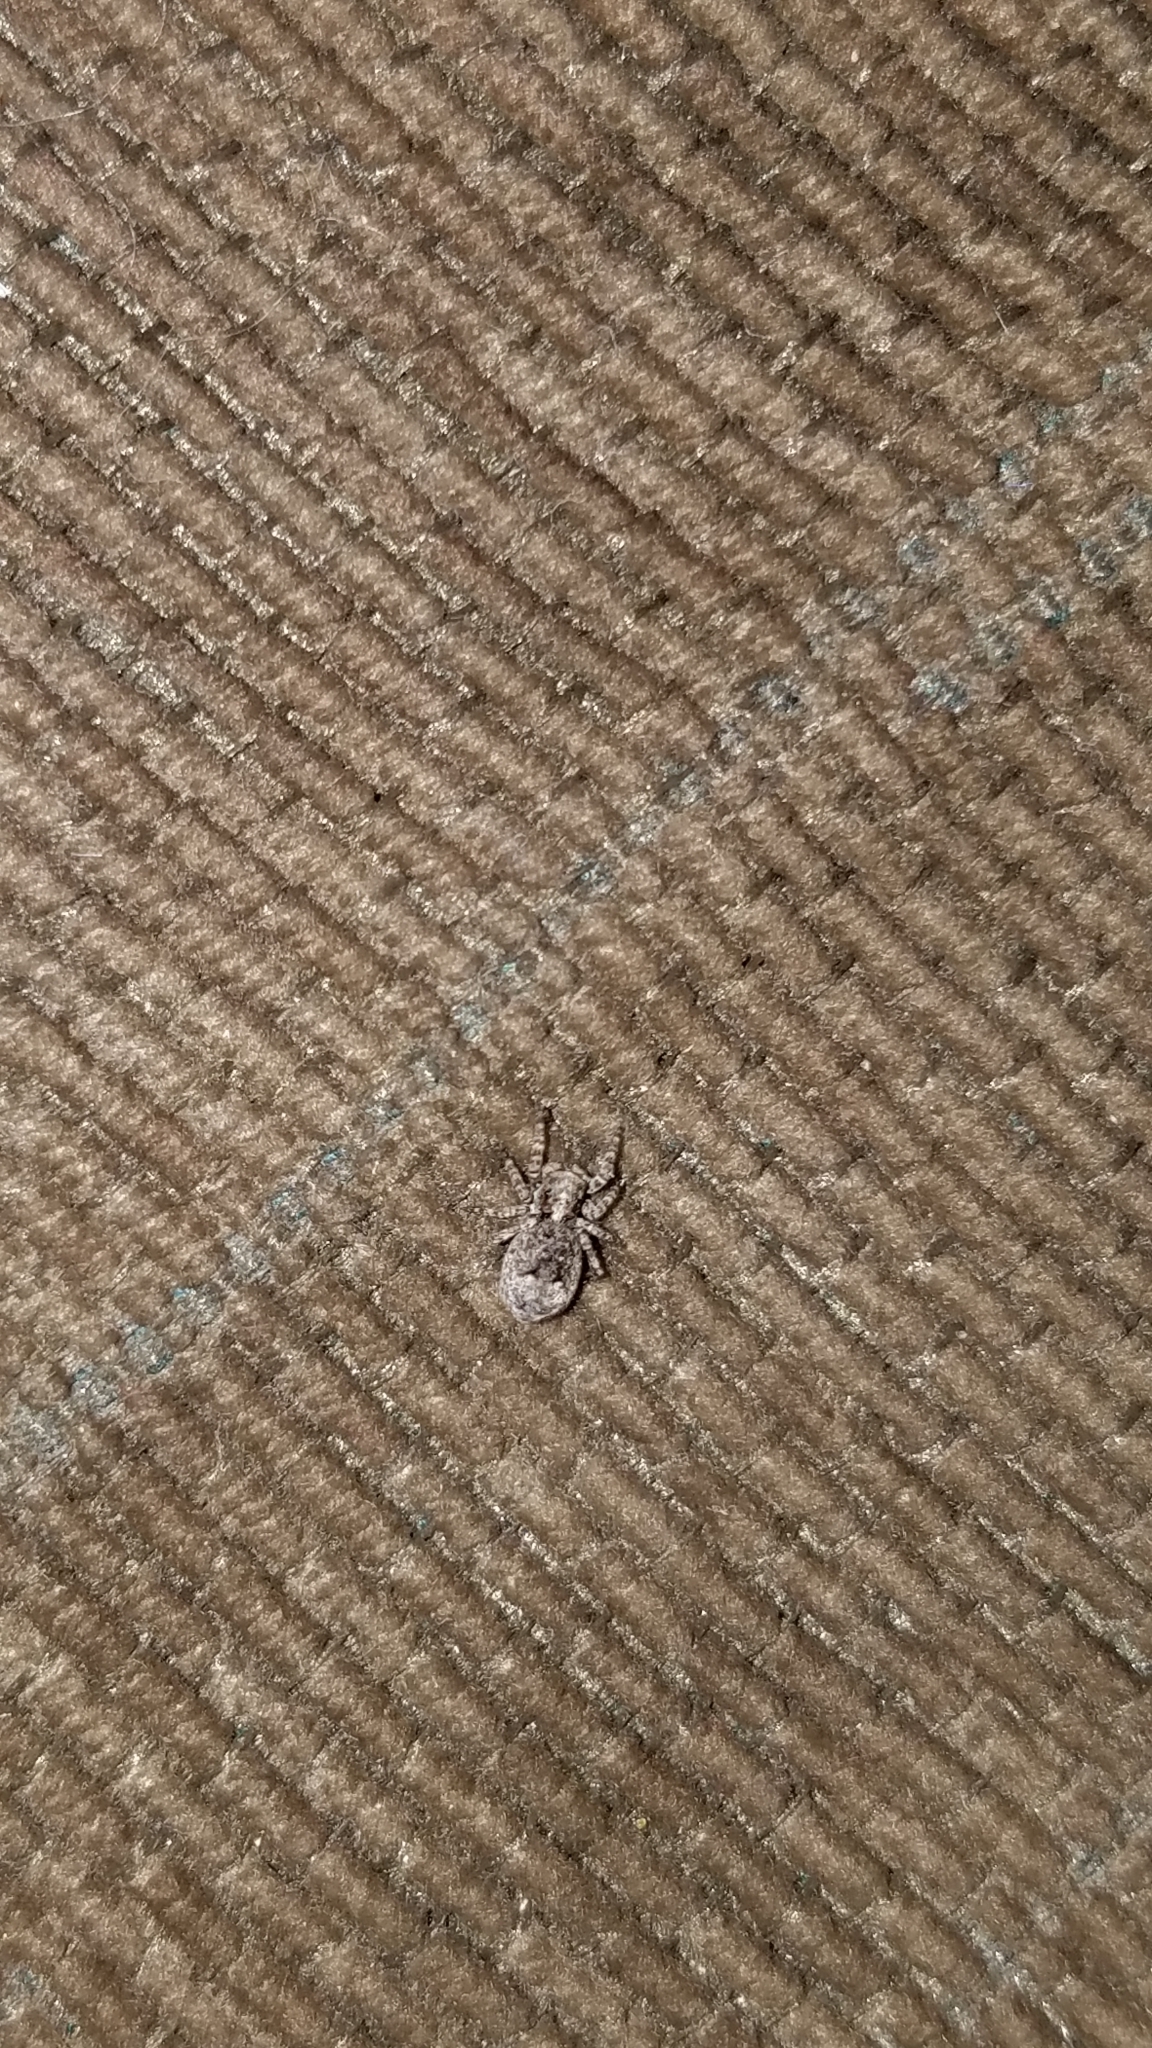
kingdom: Animalia
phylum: Arthropoda
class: Arachnida
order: Araneae
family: Salticidae
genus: Attulus
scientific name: Attulus fasciger
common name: Asiatic wall jumping spider
